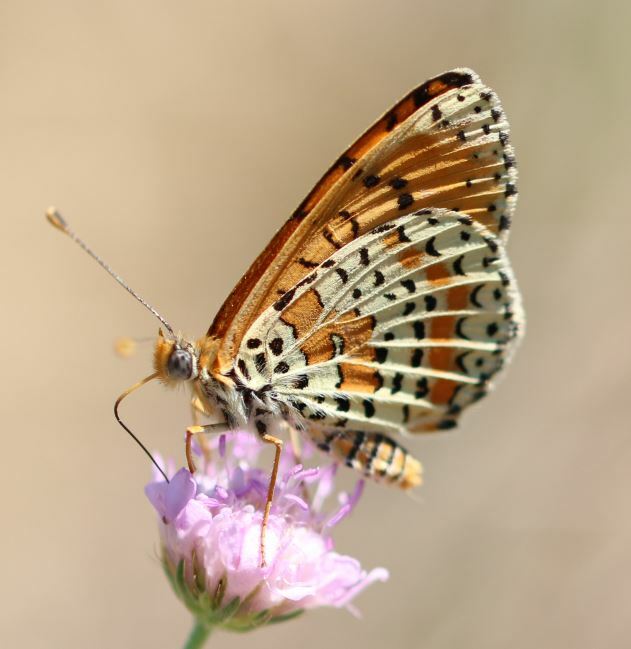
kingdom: Animalia
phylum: Arthropoda
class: Insecta
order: Lepidoptera
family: Nymphalidae
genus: Melitaea
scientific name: Melitaea didyma
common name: Spotted fritillary
